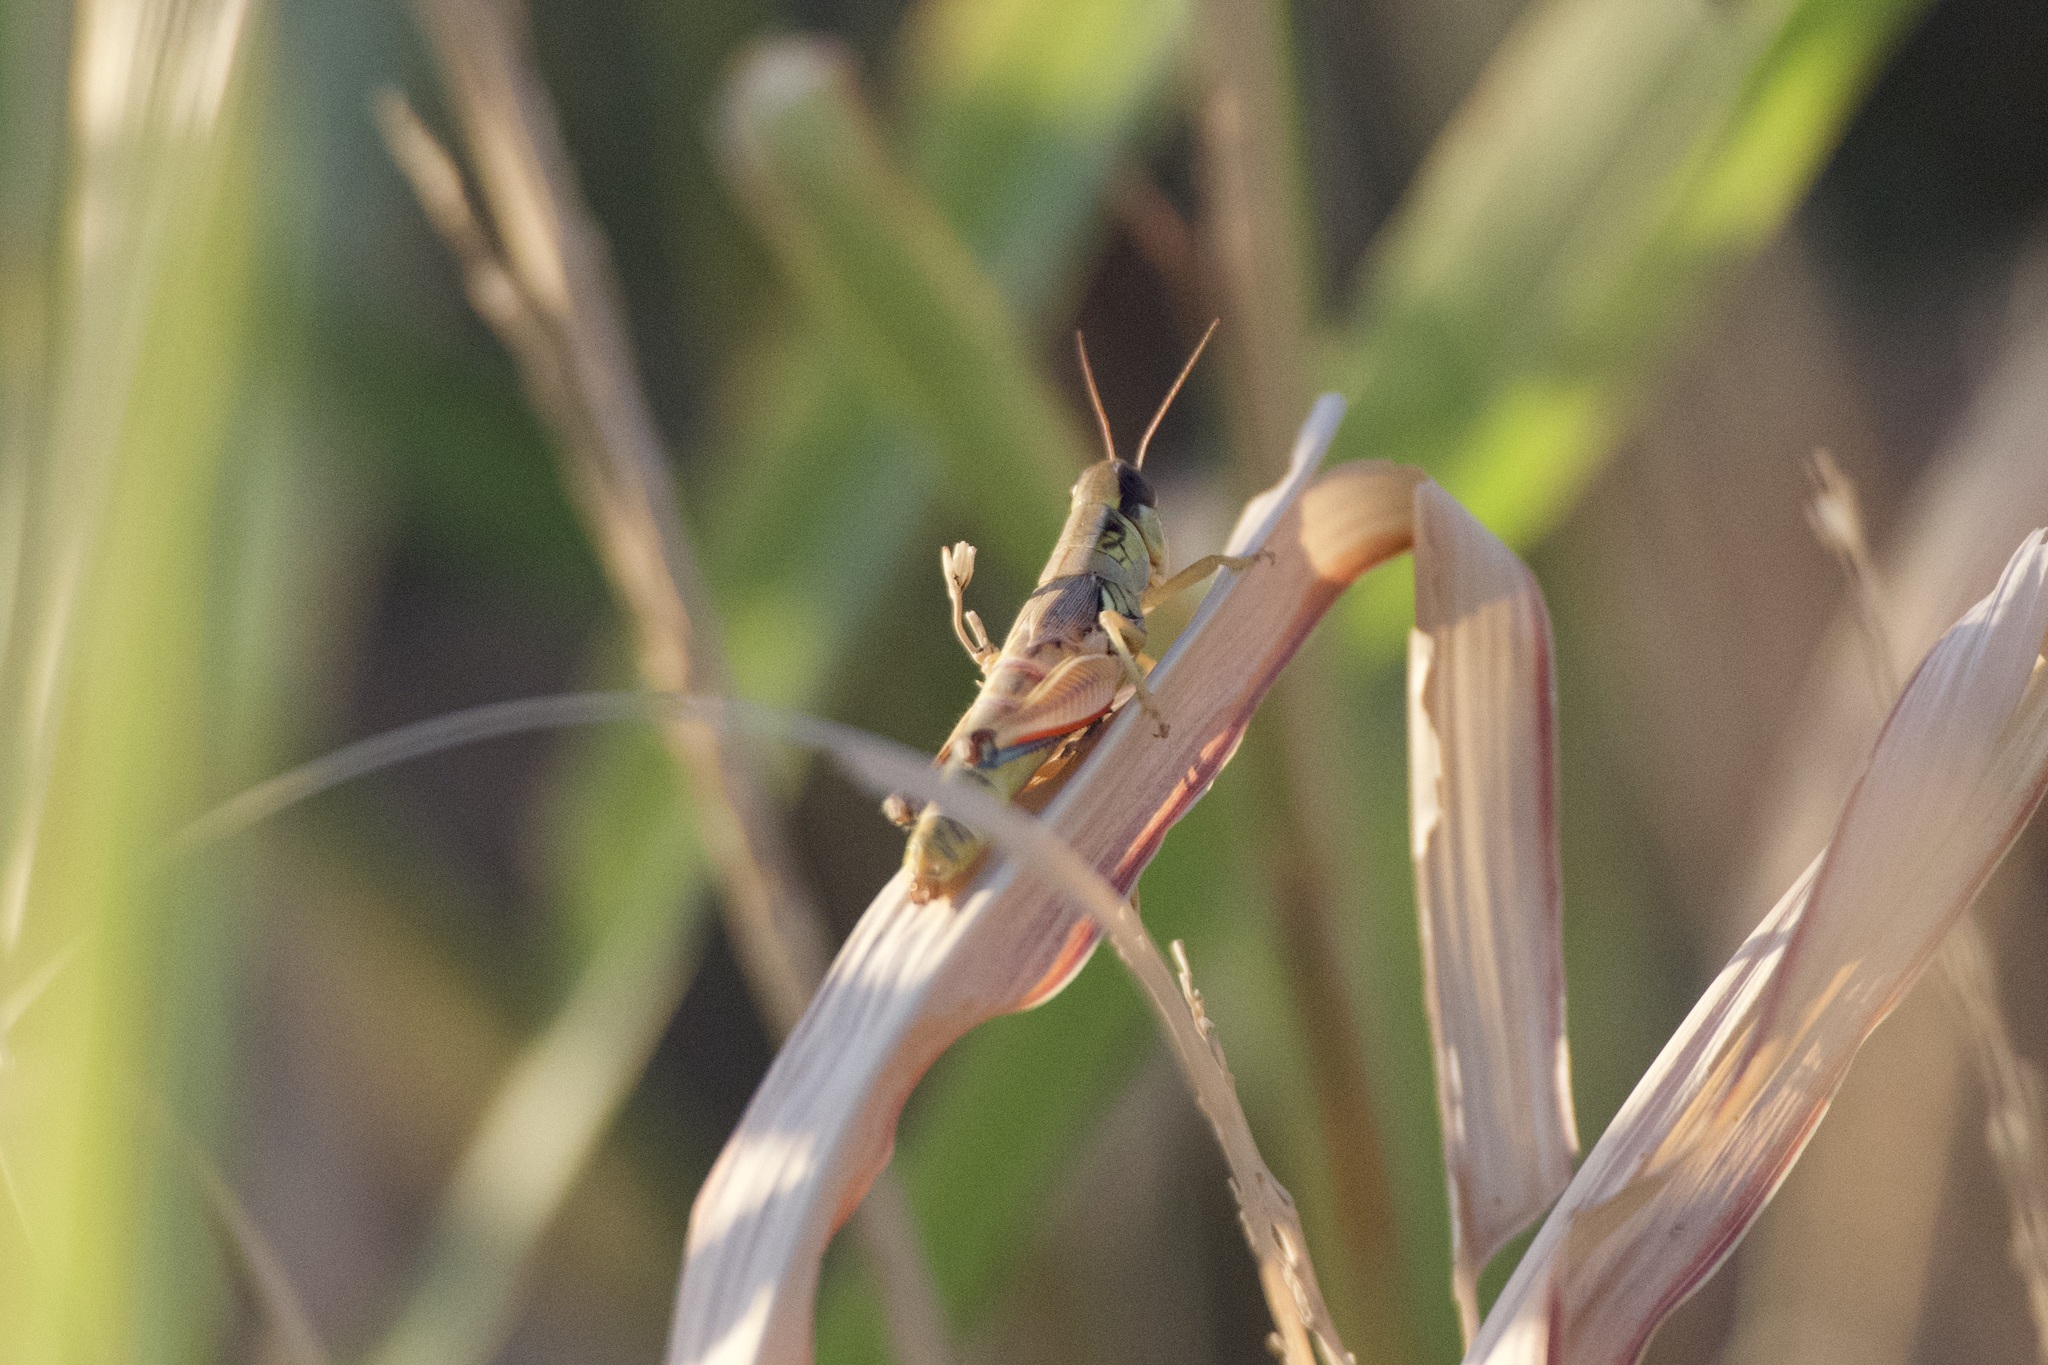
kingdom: Animalia
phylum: Arthropoda
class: Insecta
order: Orthoptera
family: Acrididae
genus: Phoetaliotes
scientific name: Phoetaliotes nebrascensis
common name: Large-headed grasshopper
